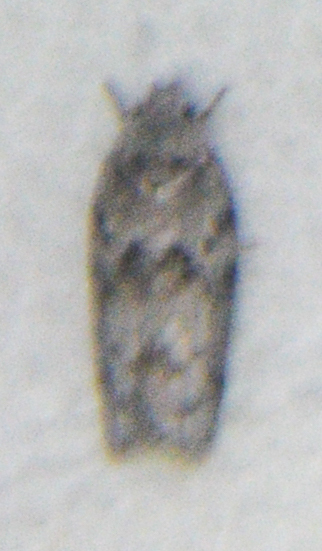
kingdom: Animalia
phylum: Arthropoda
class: Insecta
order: Lepidoptera
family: Depressariidae
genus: Antaeotricha
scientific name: Antaeotricha humilis
